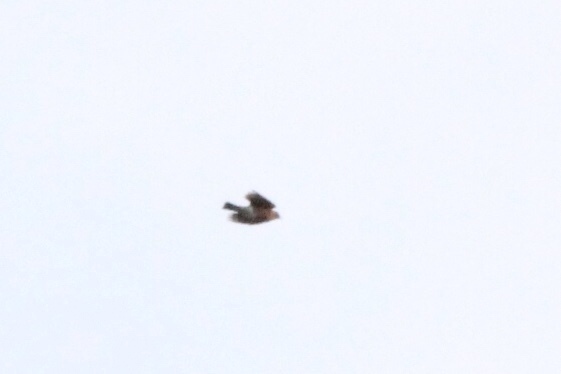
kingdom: Animalia
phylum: Chordata
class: Aves
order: Passeriformes
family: Turdidae
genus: Turdus
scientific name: Turdus migratorius
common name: American robin
